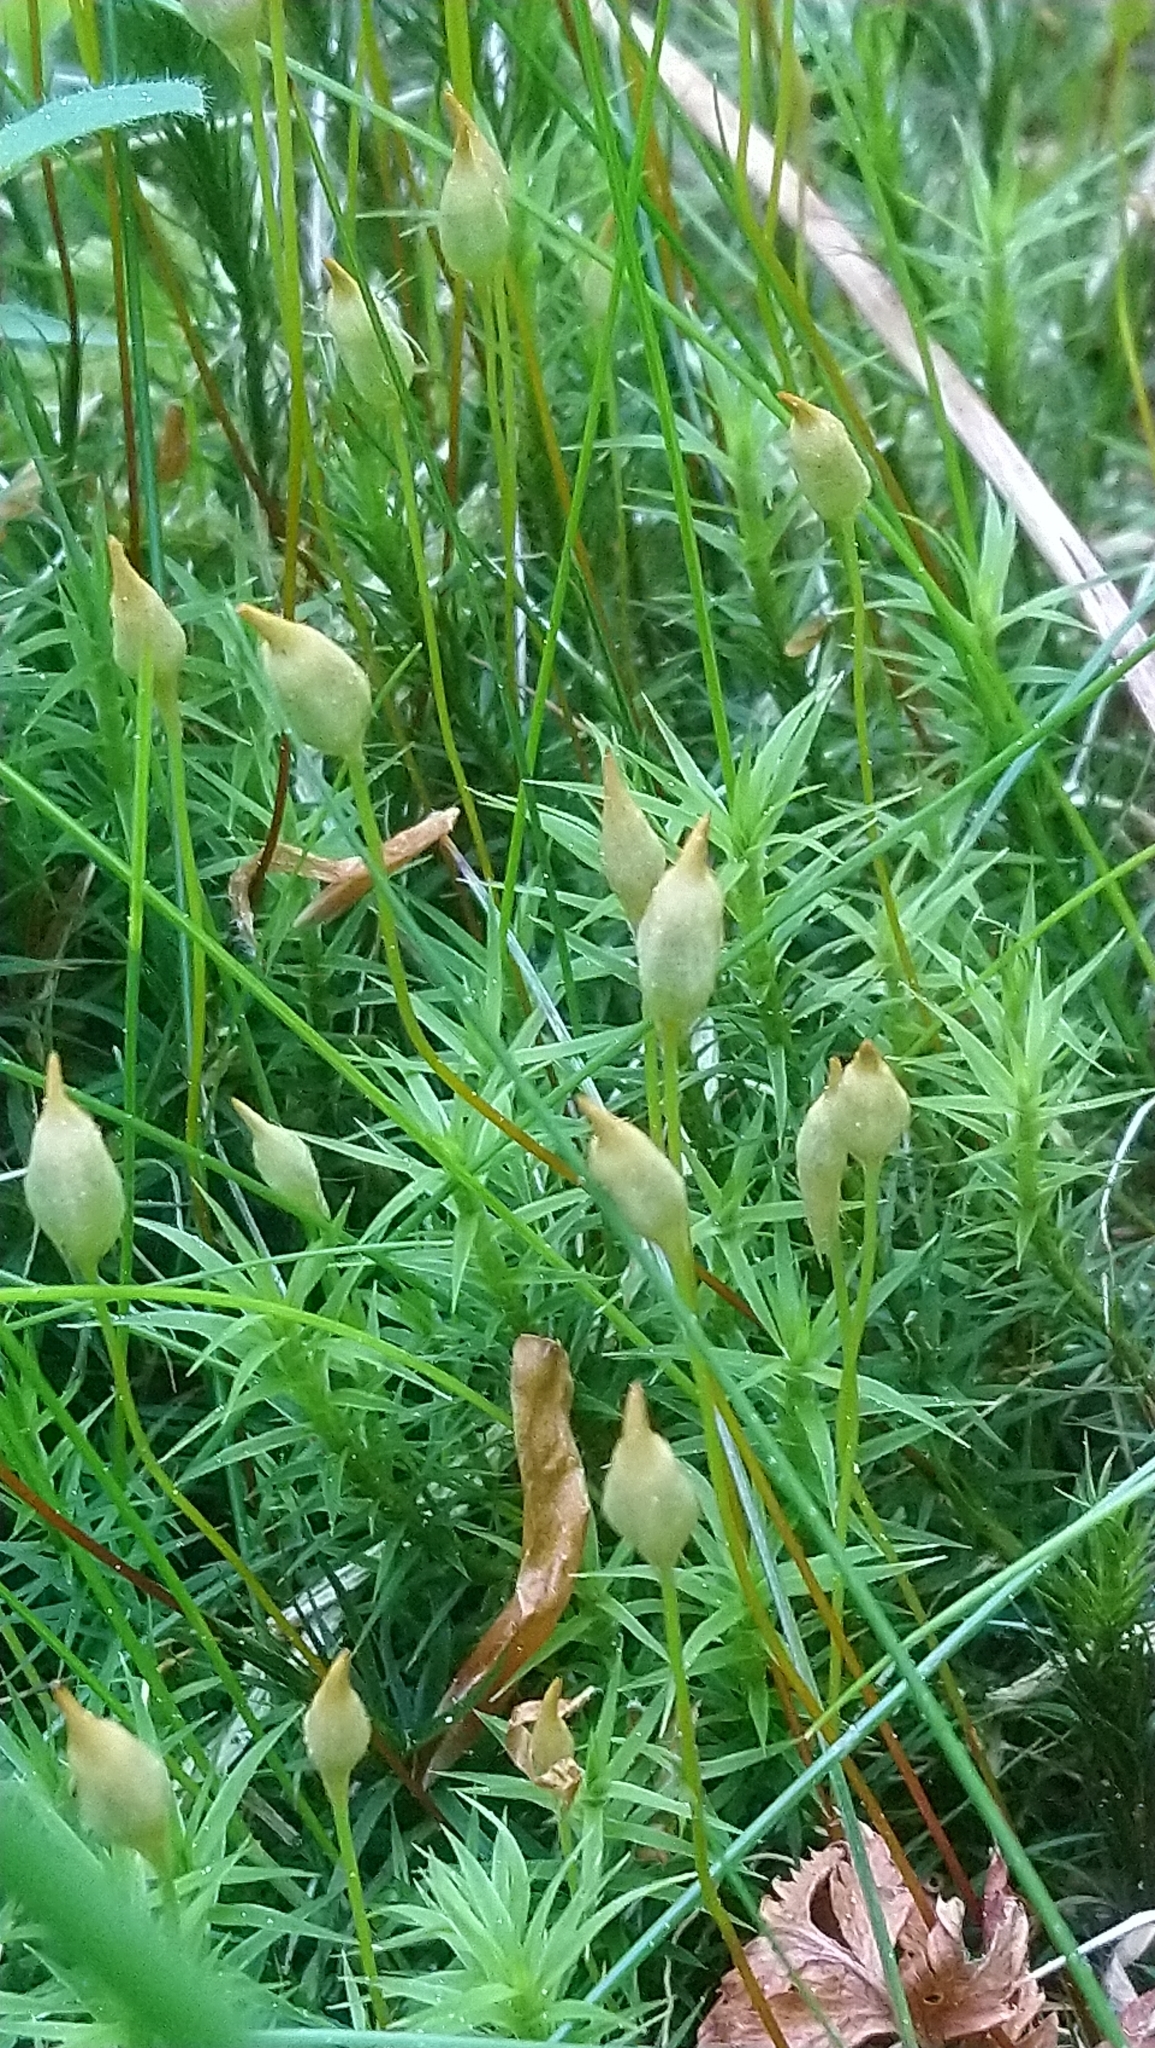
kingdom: Plantae
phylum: Bryophyta
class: Polytrichopsida
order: Polytrichales
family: Polytrichaceae
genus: Polytrichum
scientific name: Polytrichum formosum
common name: Bank haircap moss
